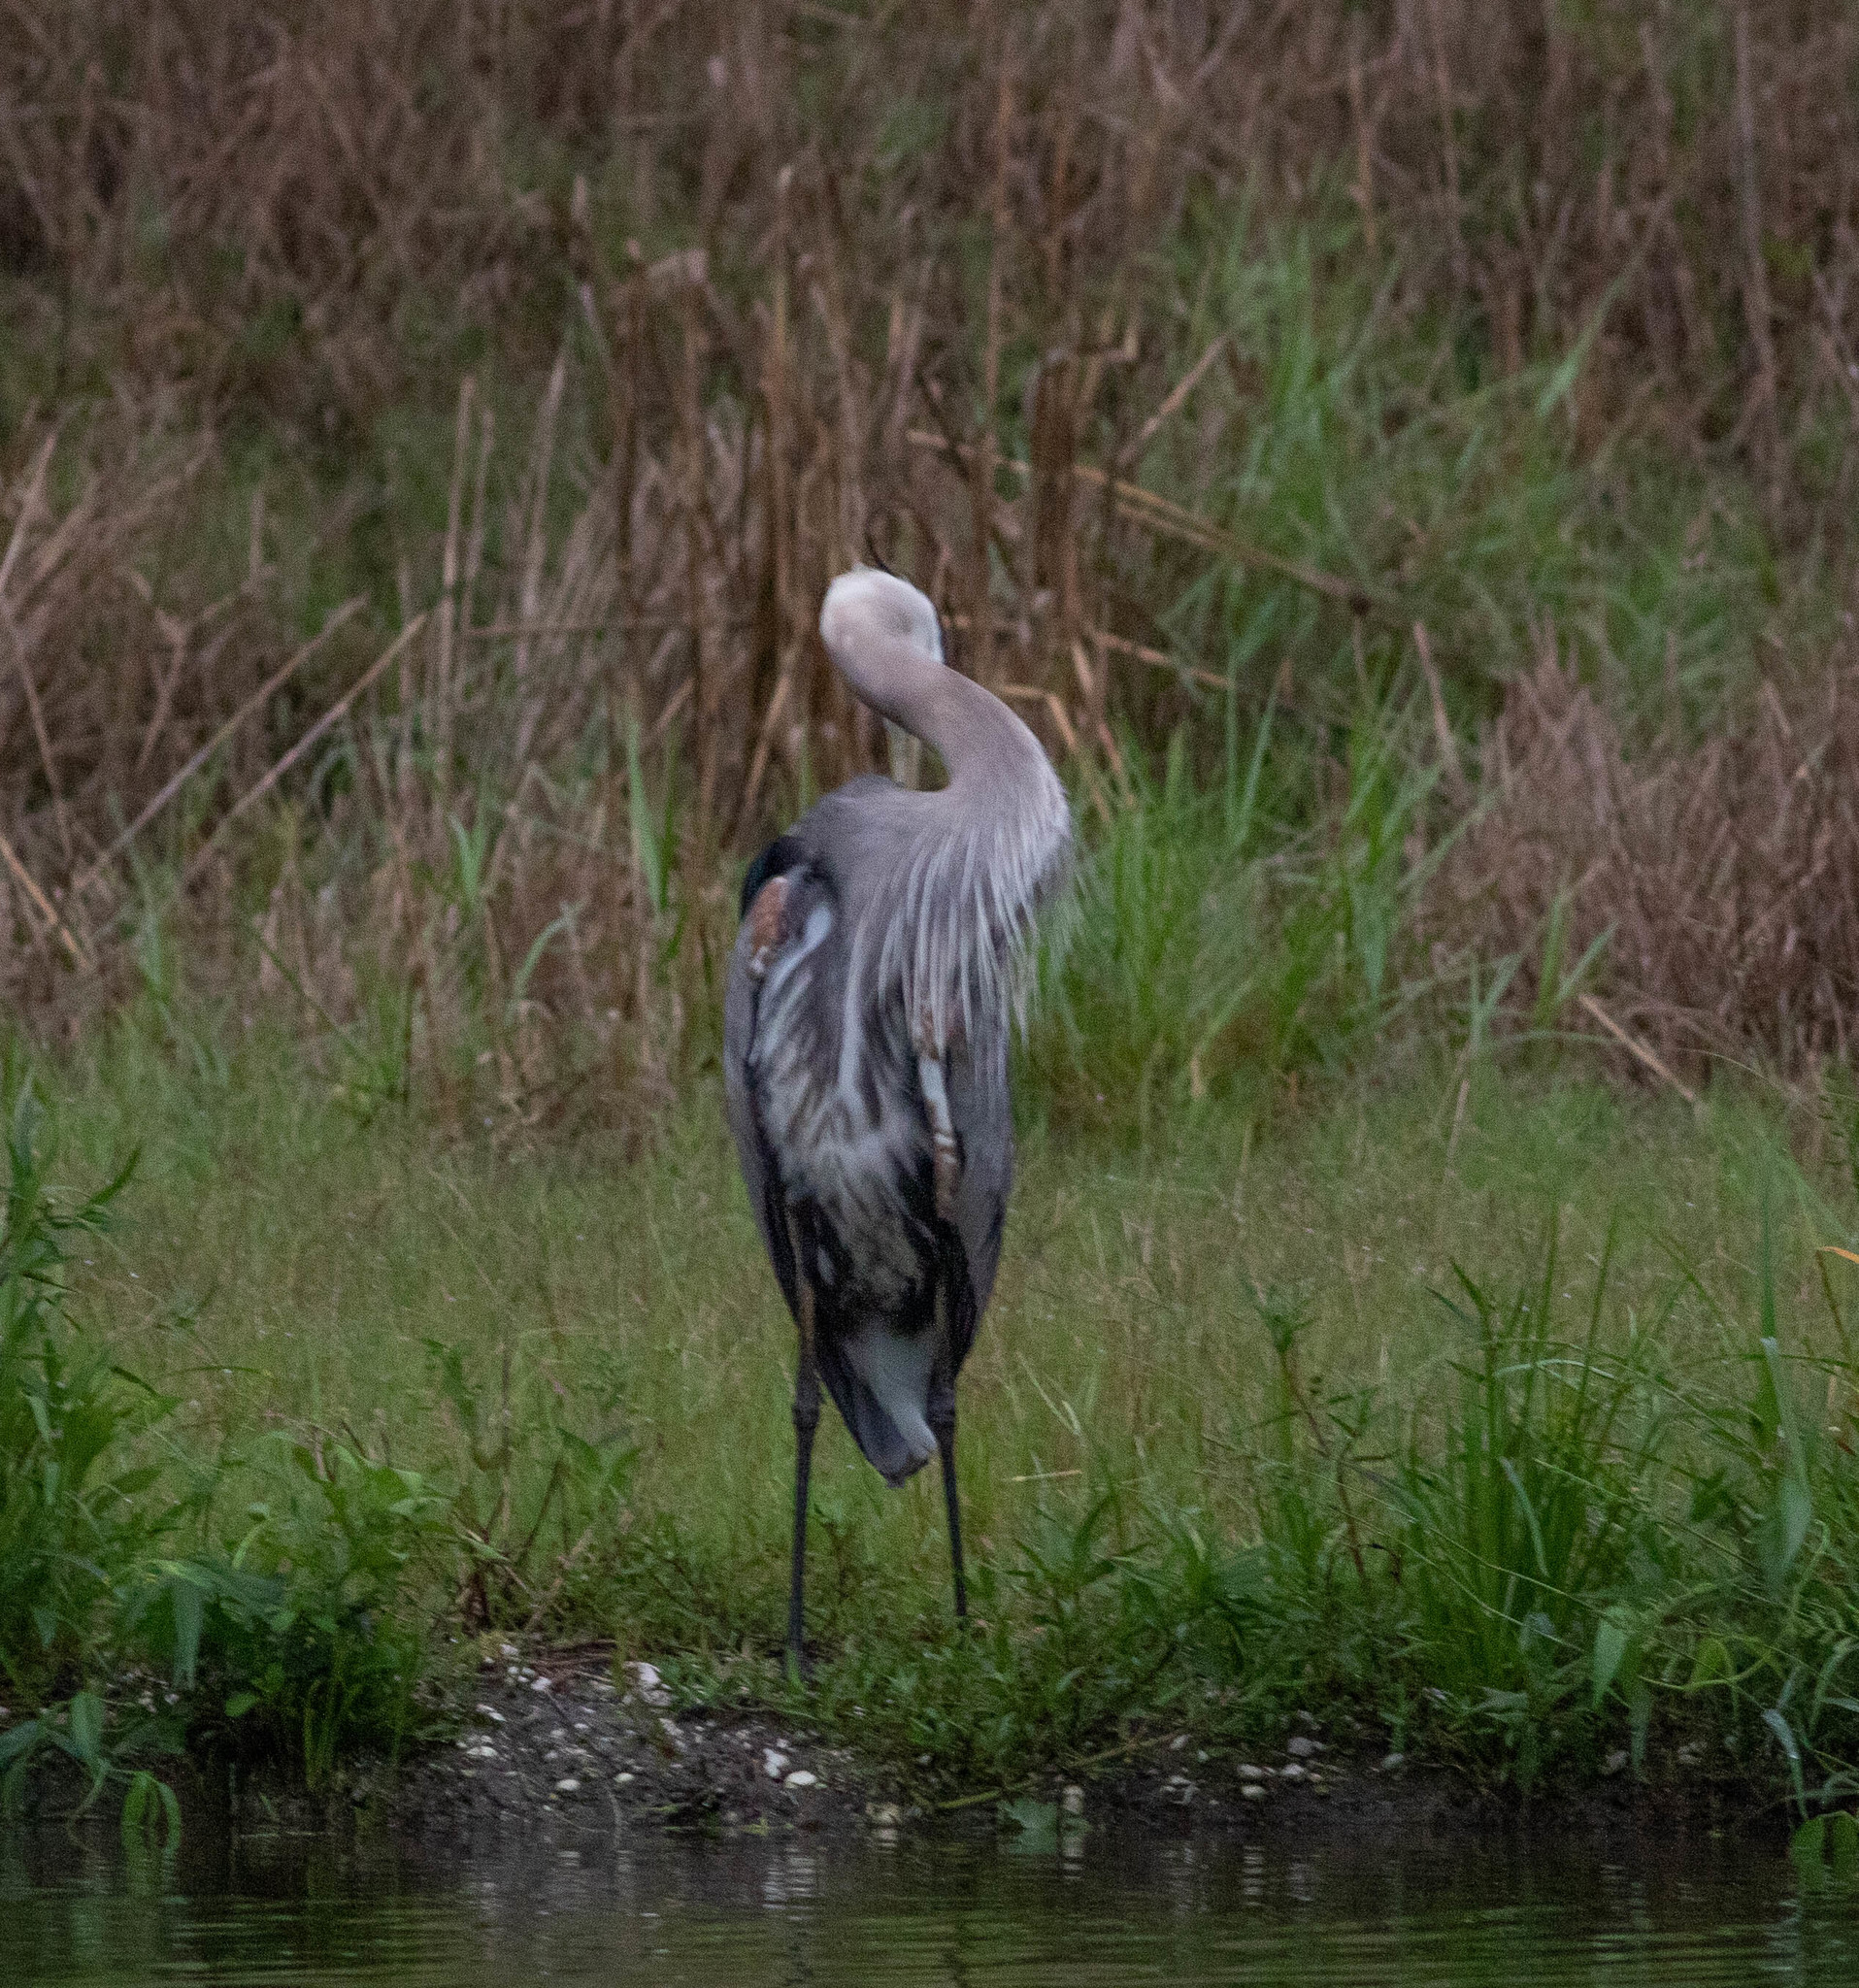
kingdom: Animalia
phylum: Chordata
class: Aves
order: Pelecaniformes
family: Ardeidae
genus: Ardea
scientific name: Ardea herodias
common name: Great blue heron
